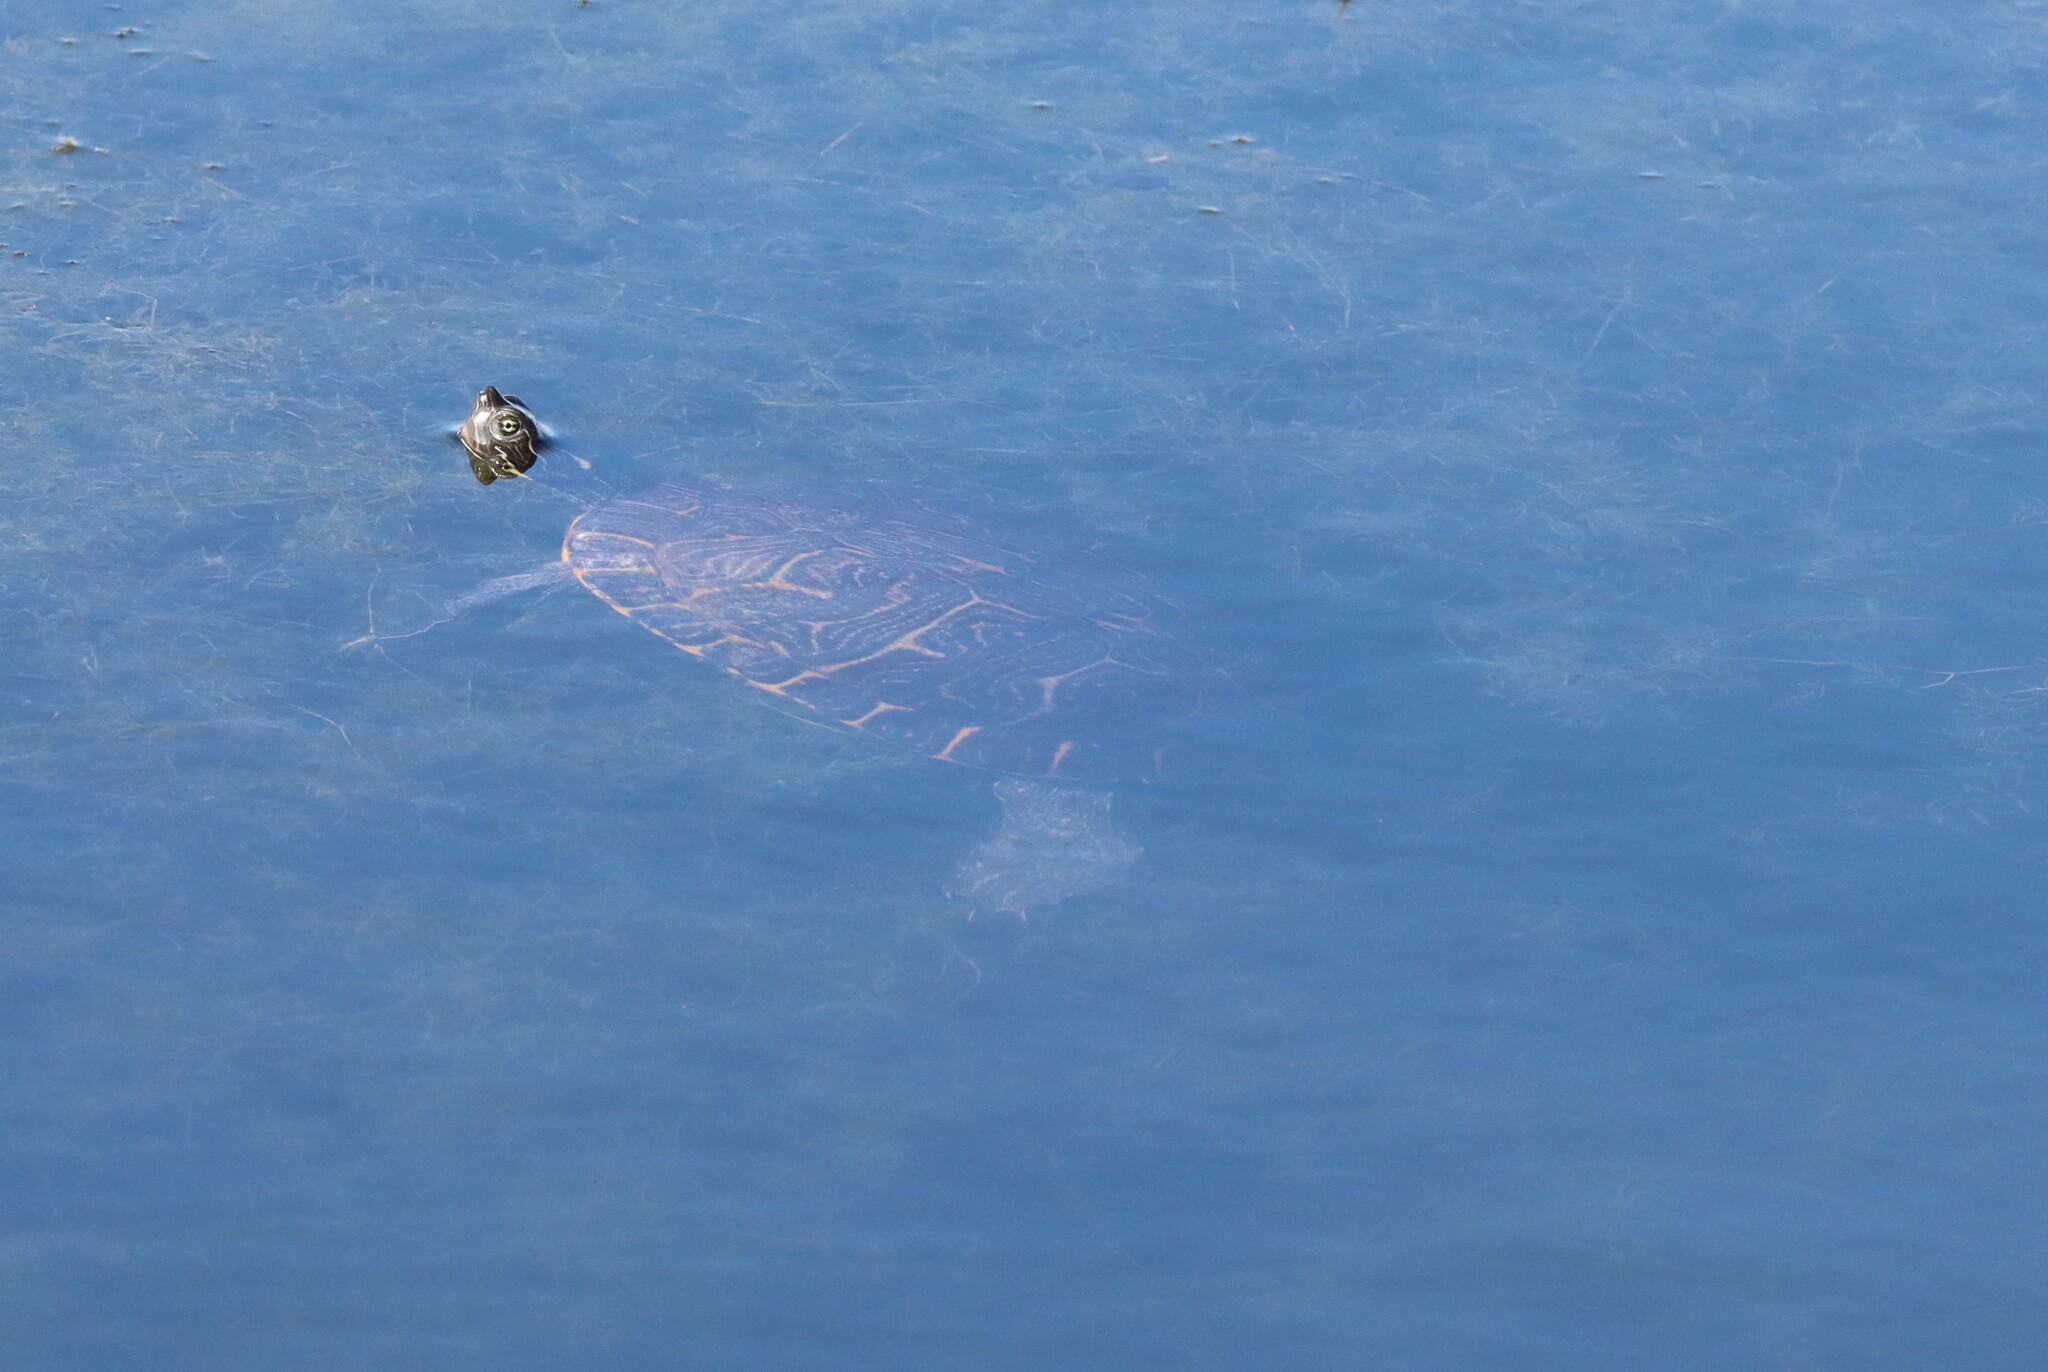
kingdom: Animalia
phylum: Chordata
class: Testudines
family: Emydidae
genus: Pseudemys
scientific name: Pseudemys concinna
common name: Eastern river cooter
